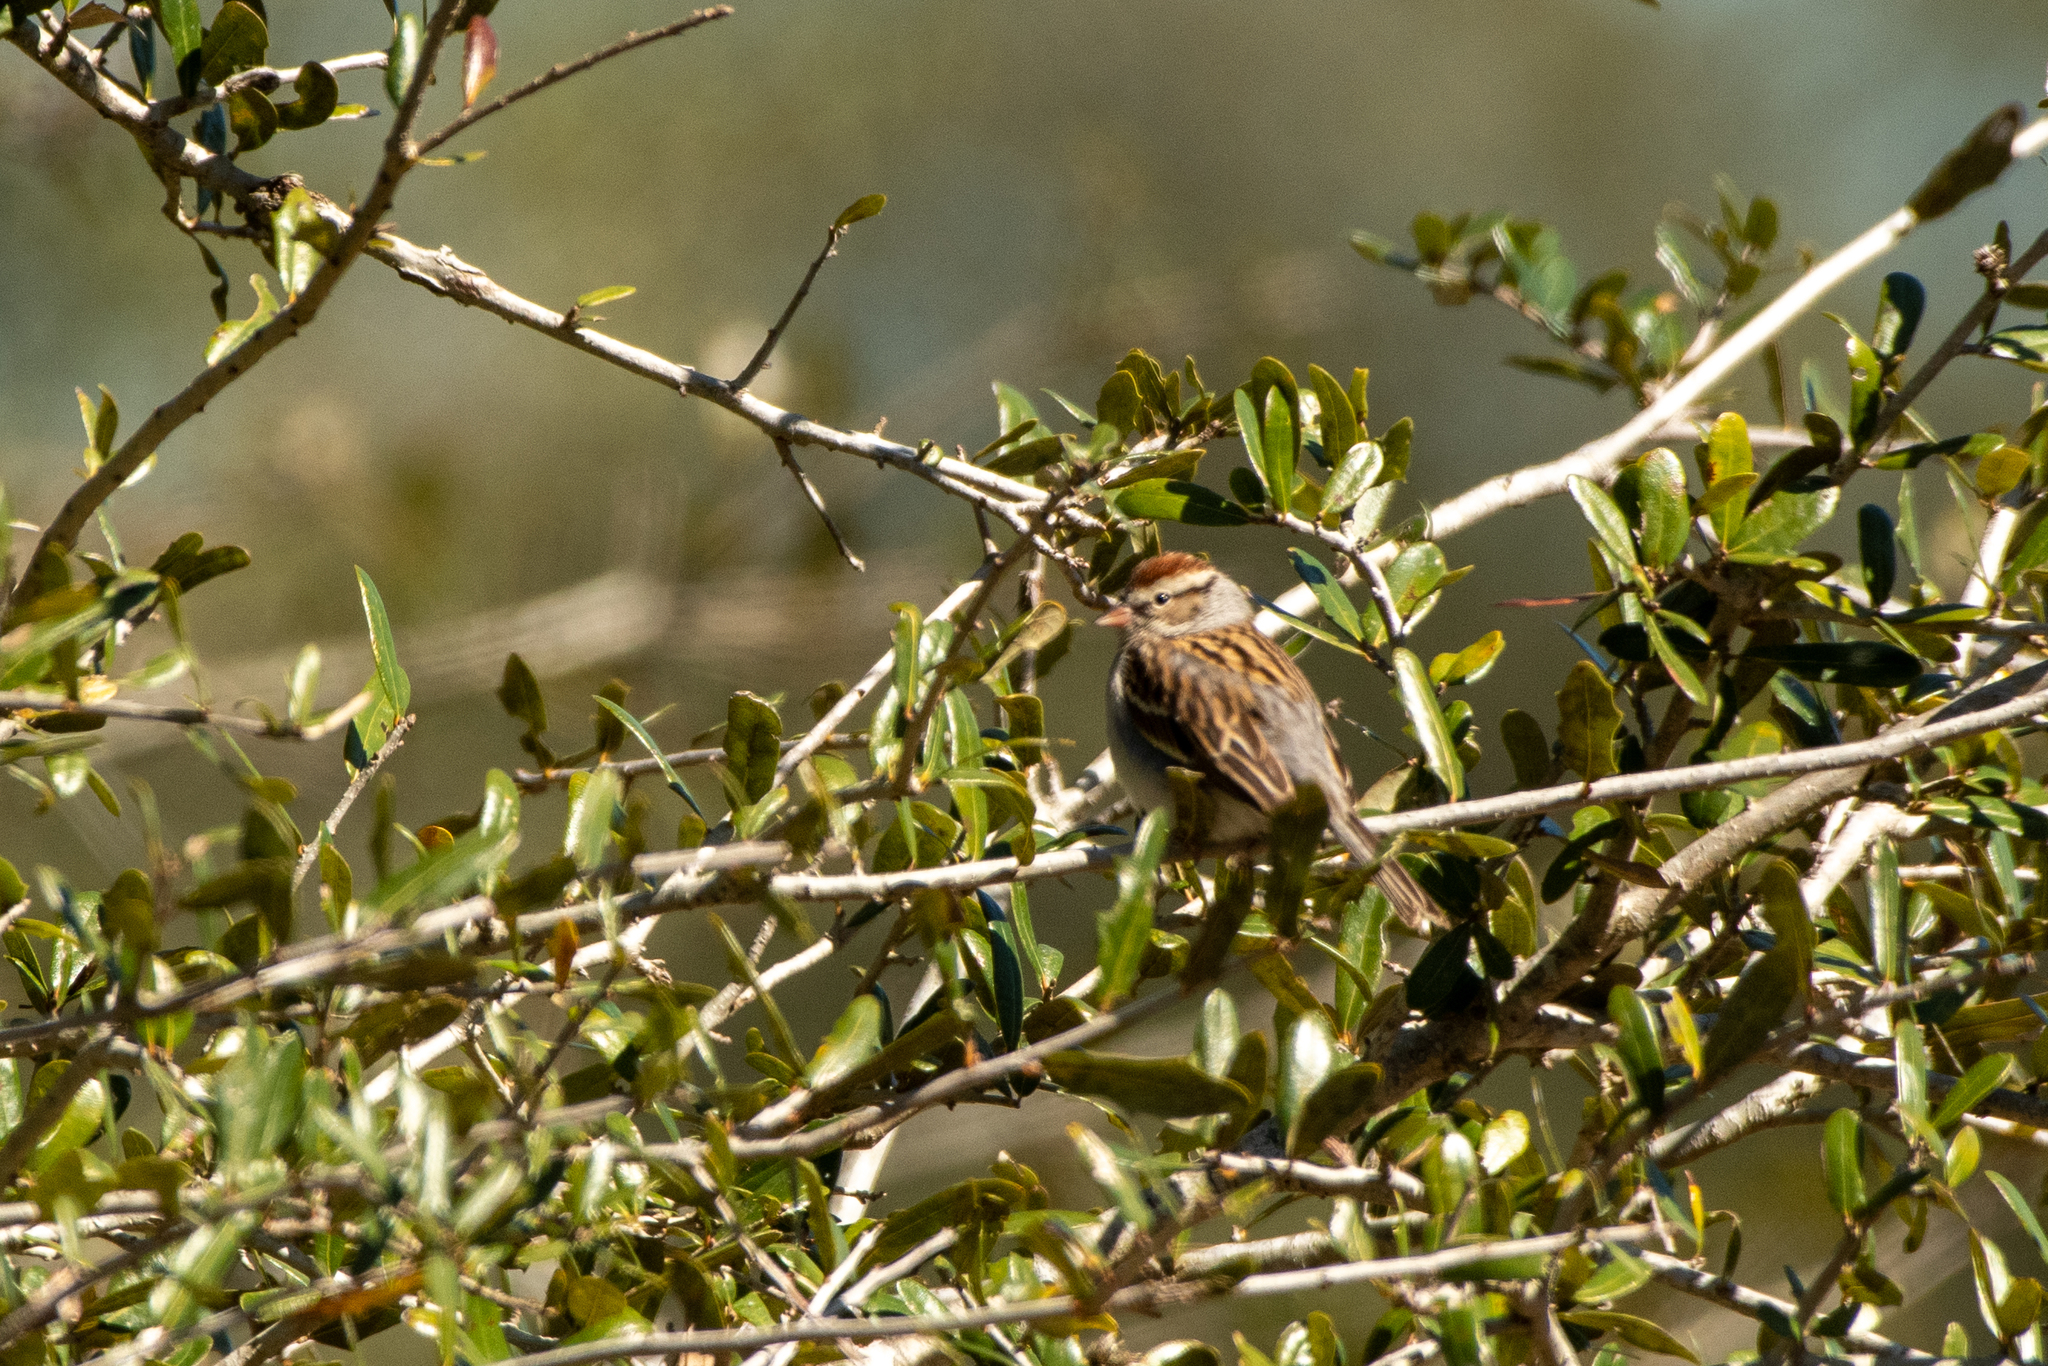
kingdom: Animalia
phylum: Chordata
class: Aves
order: Passeriformes
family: Passerellidae
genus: Spizella
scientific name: Spizella passerina
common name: Chipping sparrow
